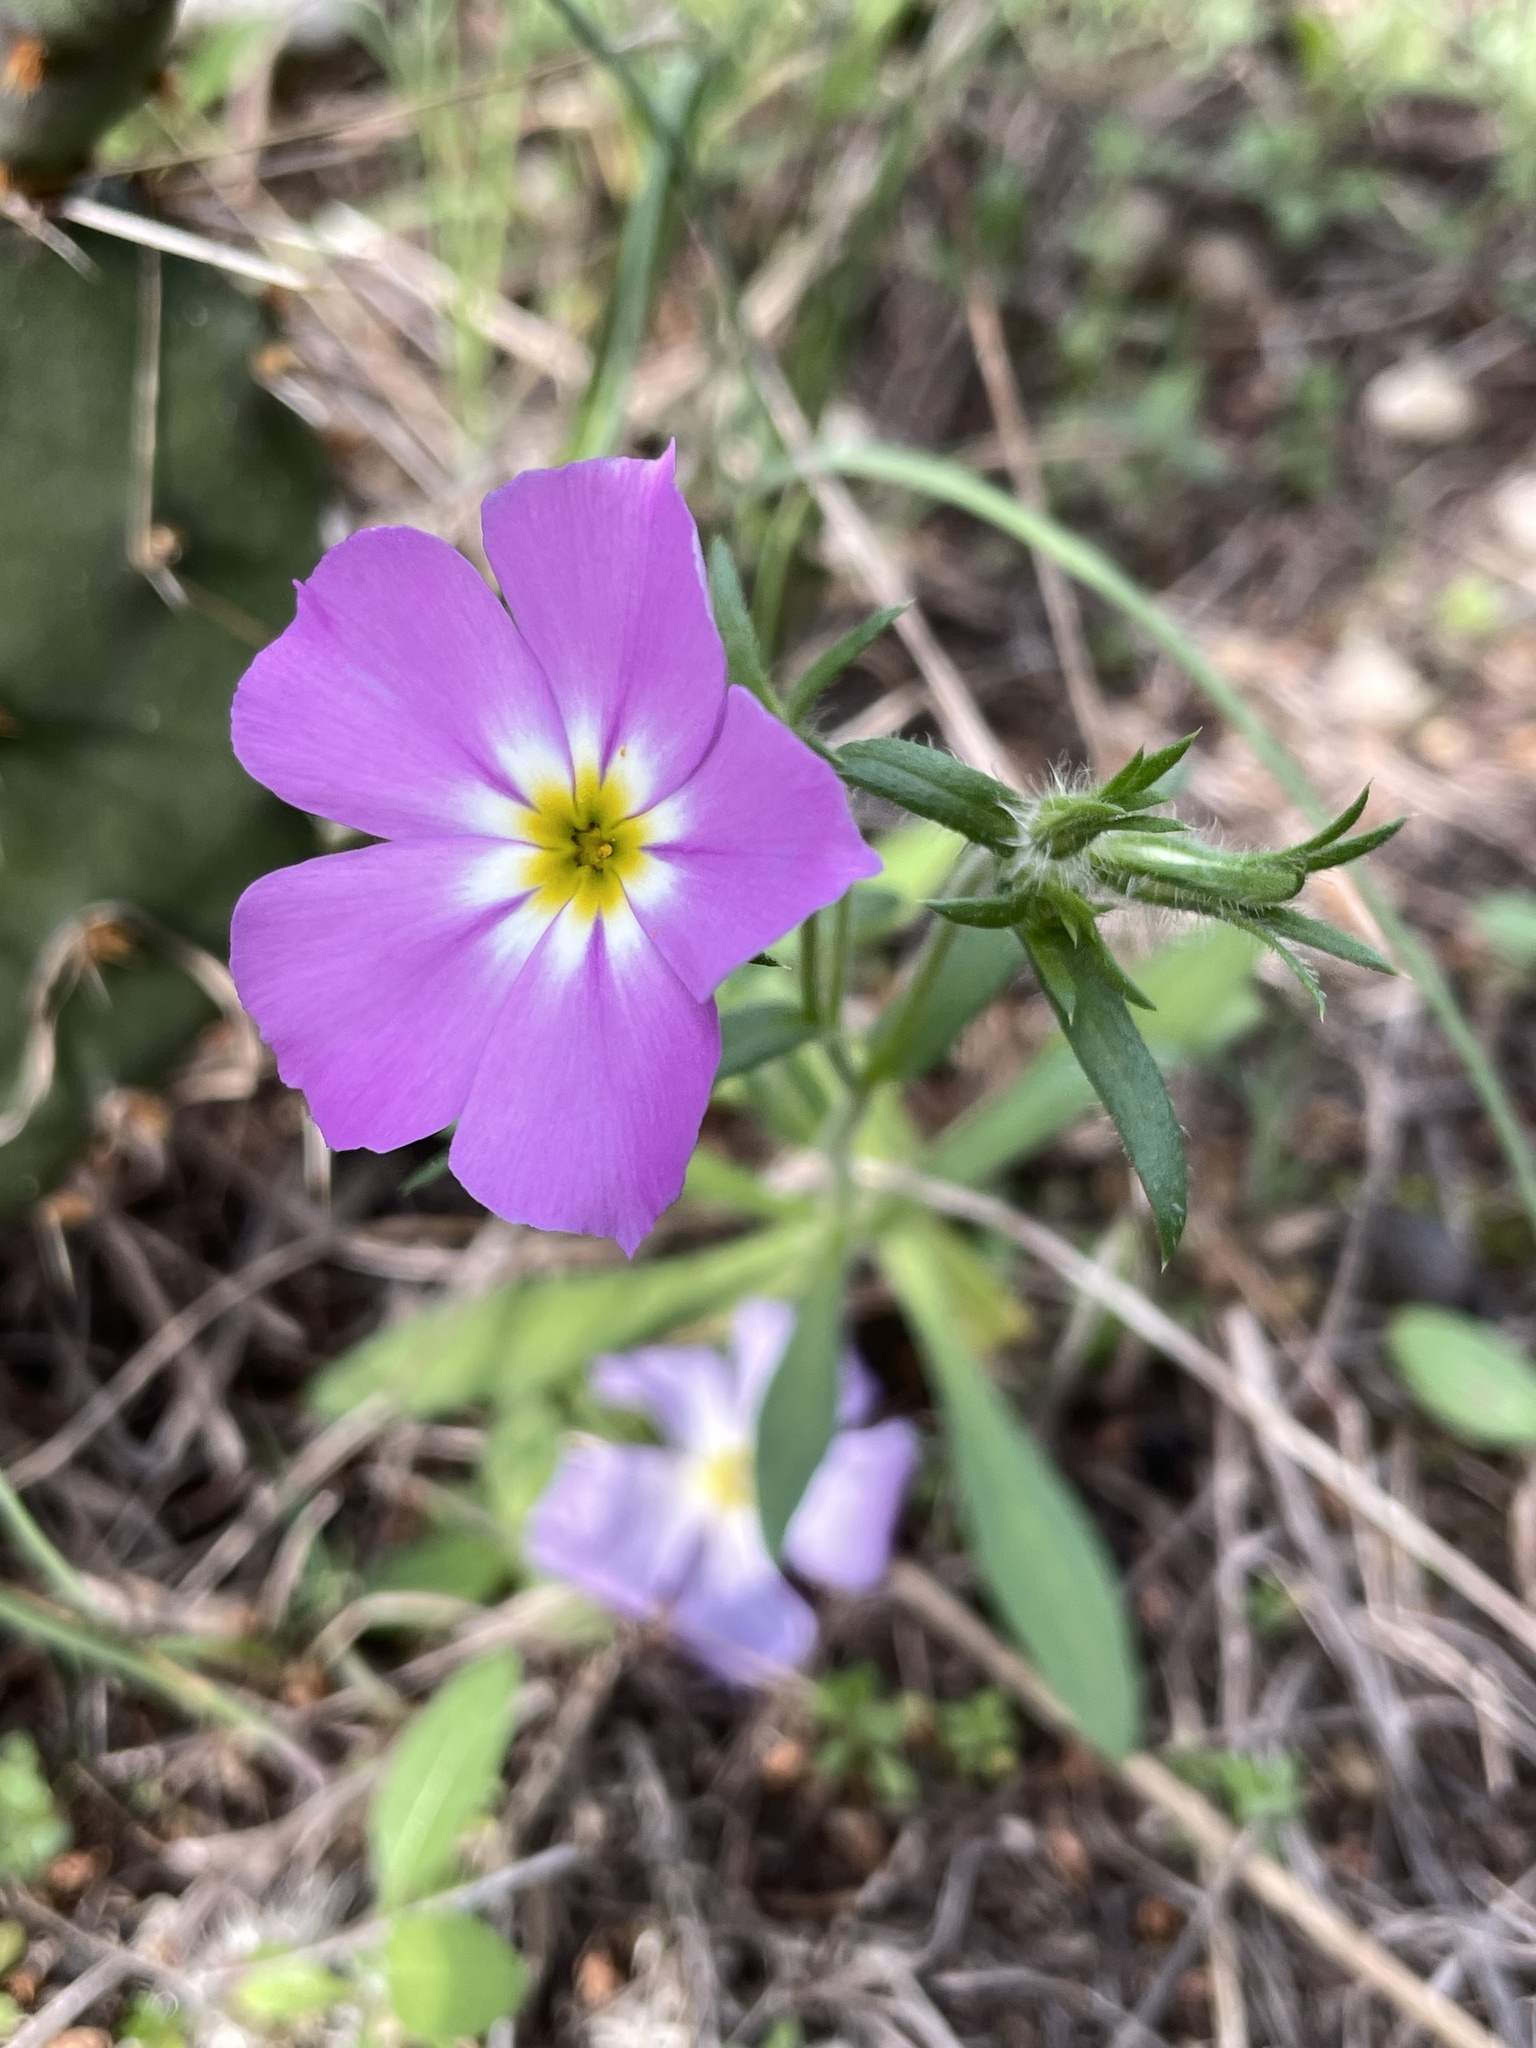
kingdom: Plantae
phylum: Tracheophyta
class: Magnoliopsida
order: Ericales
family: Polemoniaceae
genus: Phlox
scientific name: Phlox roemeriana
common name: Roemer's phlox
